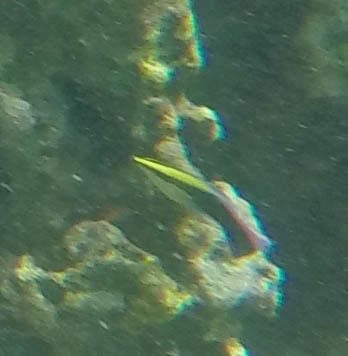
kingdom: Animalia
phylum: Chordata
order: Perciformes
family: Labridae
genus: Labroides
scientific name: Labroides phthirophagus
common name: Cleaner wrasse
